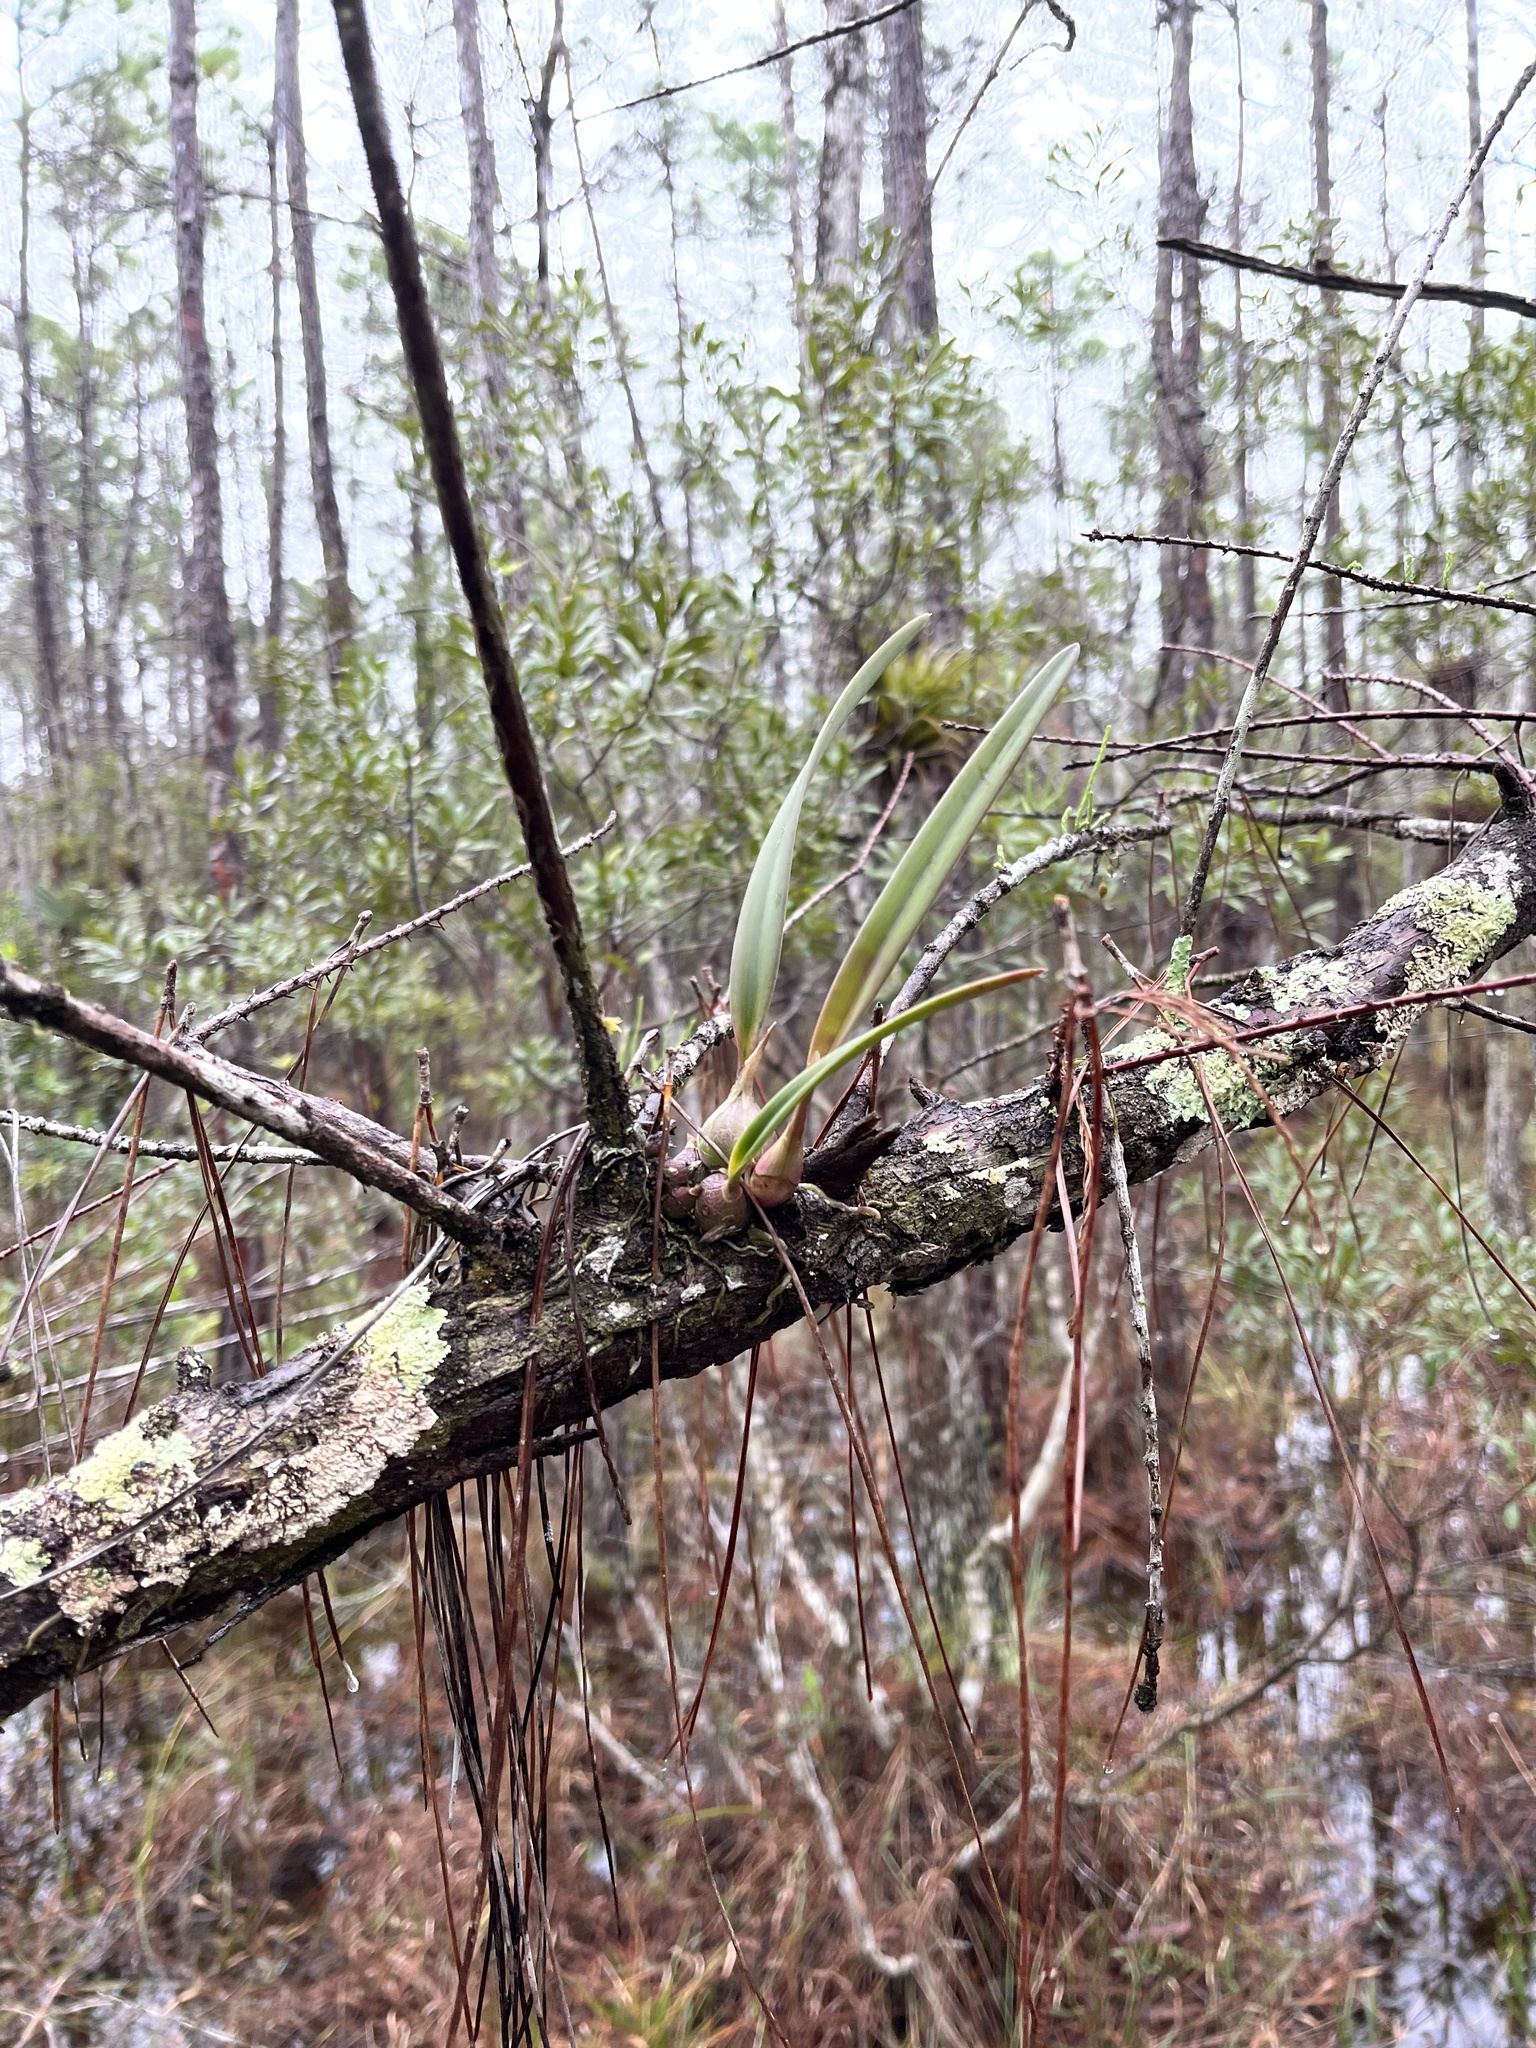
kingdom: Plantae
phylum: Tracheophyta
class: Liliopsida
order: Asparagales
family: Orchidaceae
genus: Encyclia
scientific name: Encyclia tampensis
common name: Florida butterfly orchid
